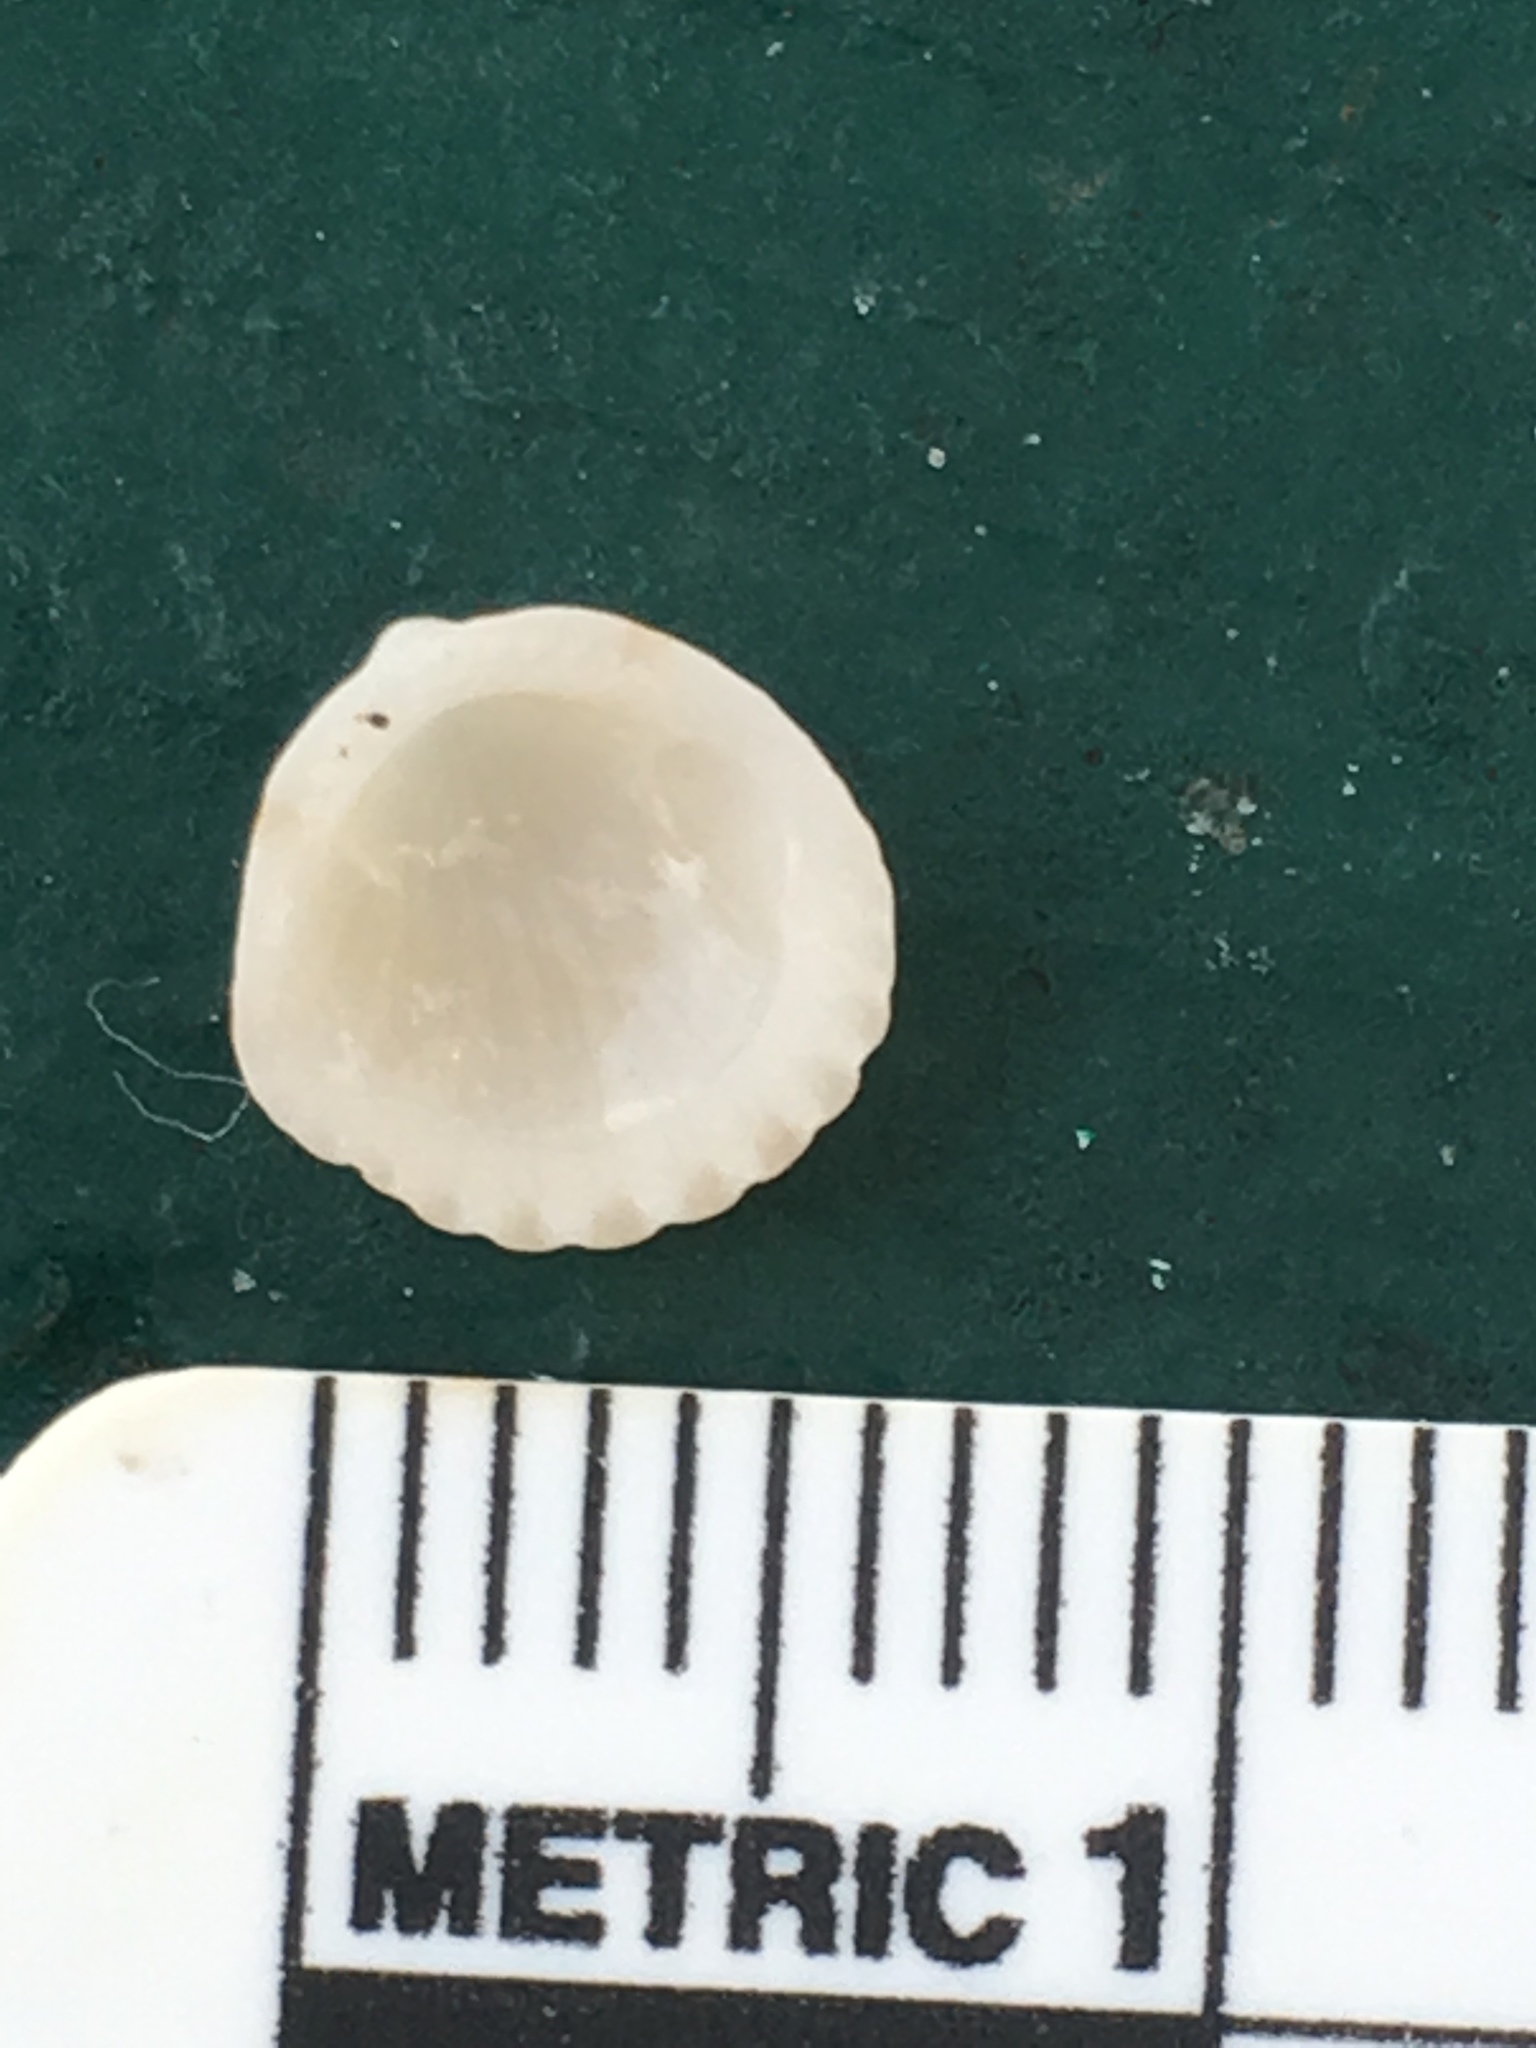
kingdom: Animalia
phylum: Mollusca
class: Bivalvia
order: Arcida
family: Glycymerididae
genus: Tucetona
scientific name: Tucetona pectinata
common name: Comb bittersweet
